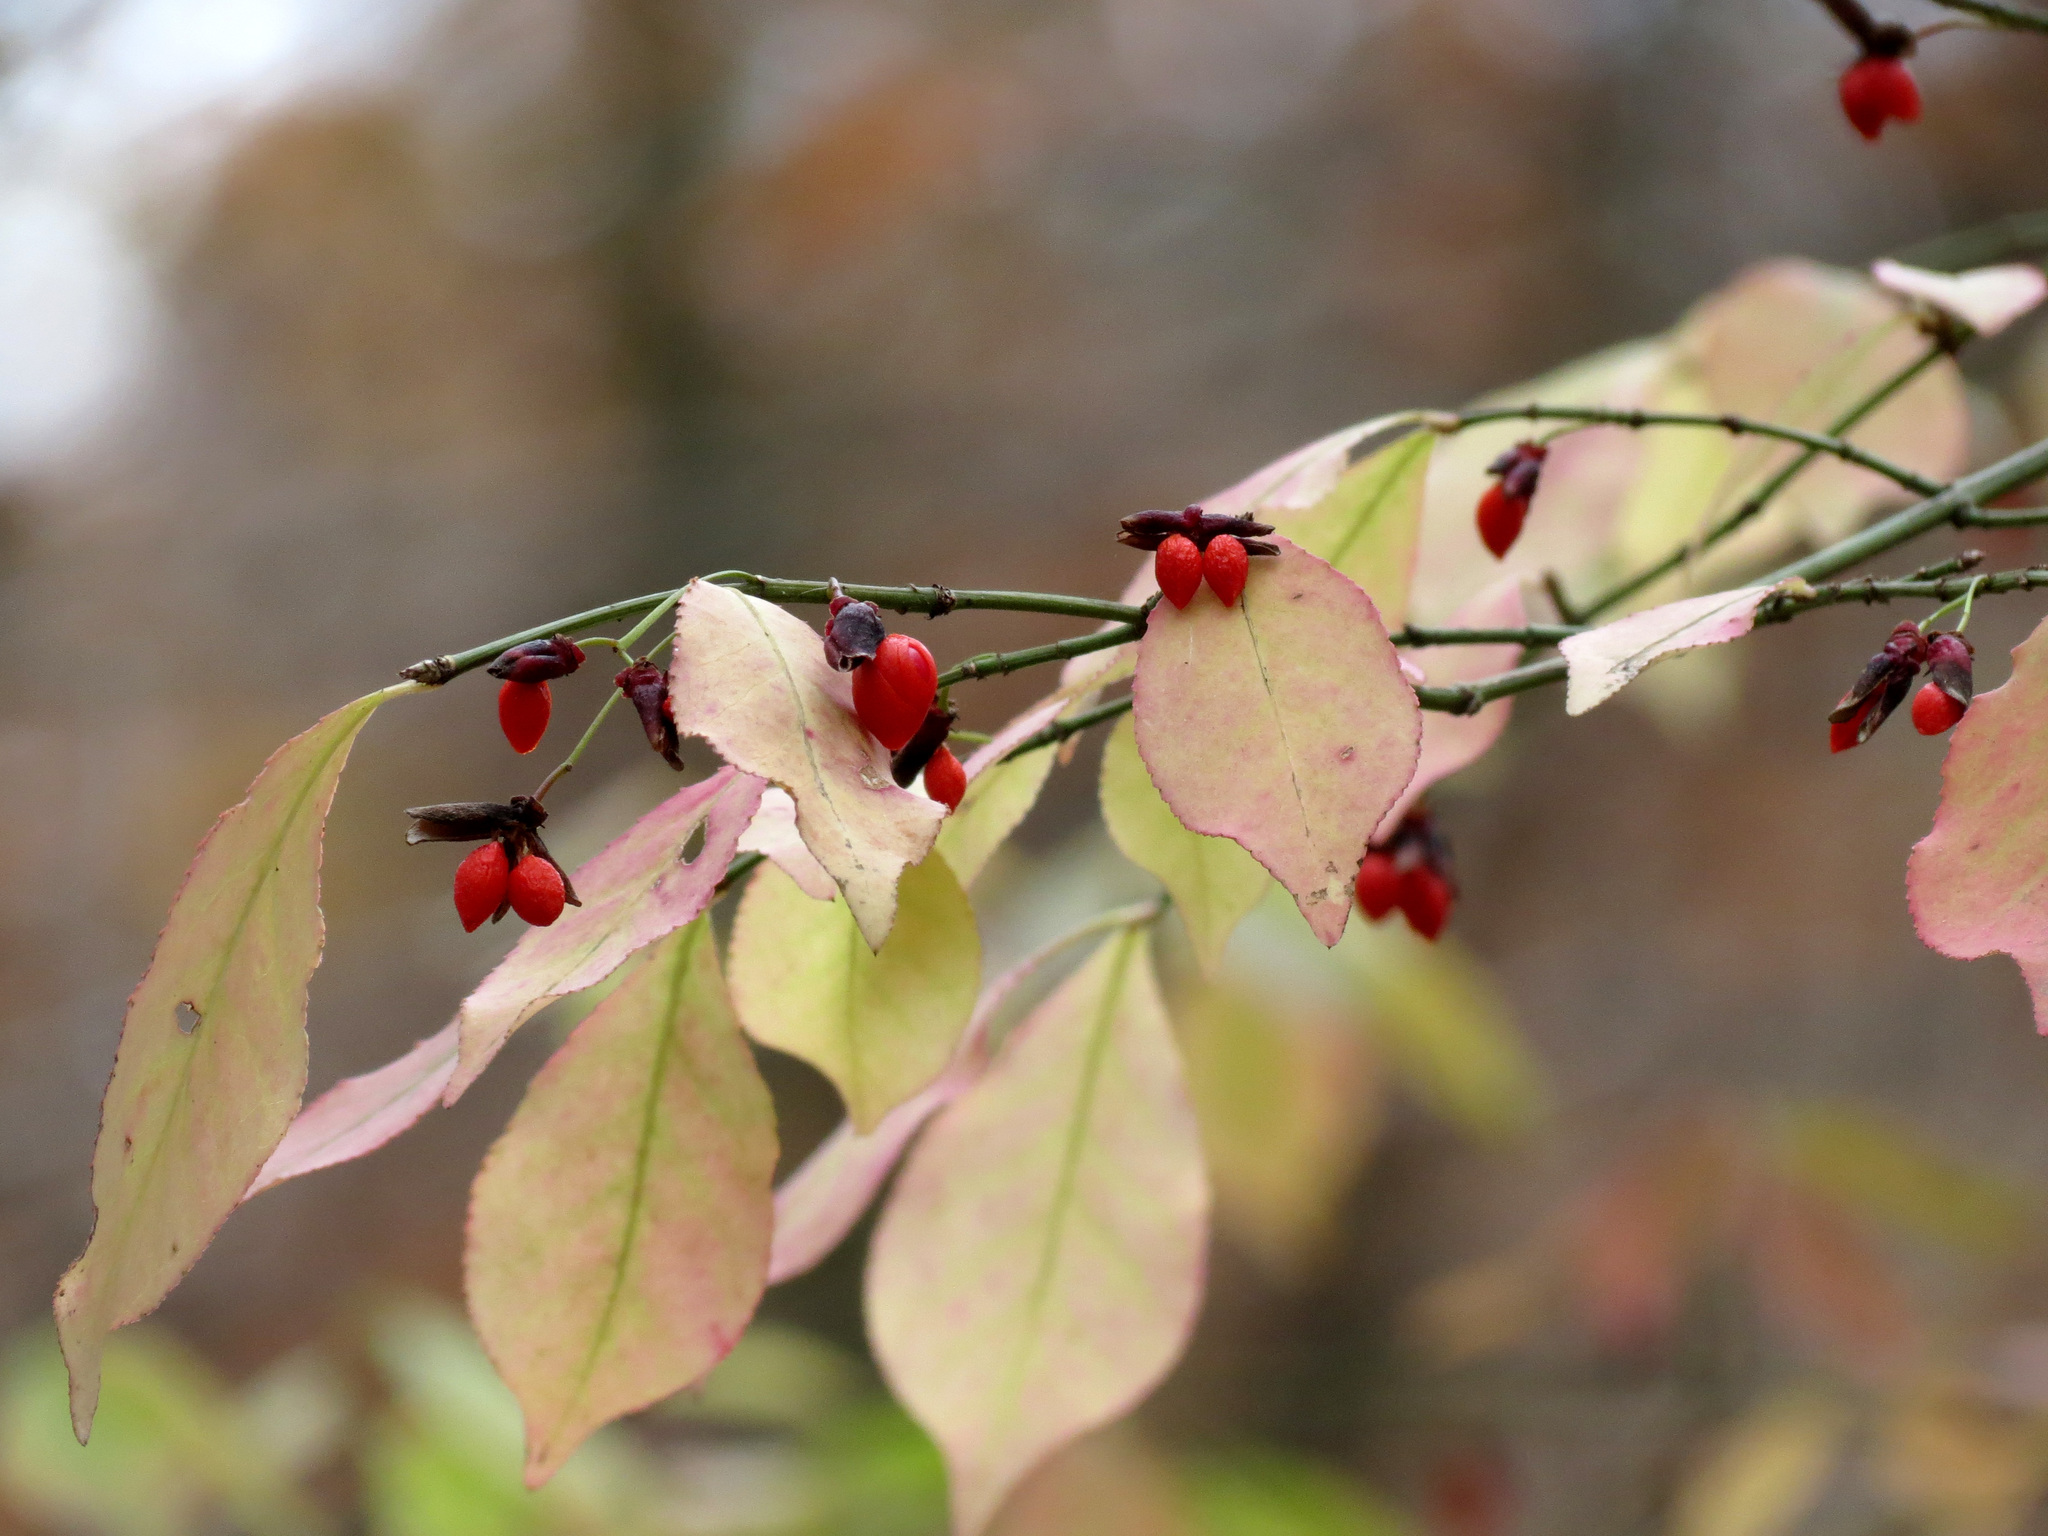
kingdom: Plantae
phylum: Tracheophyta
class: Magnoliopsida
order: Celastrales
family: Celastraceae
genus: Euonymus
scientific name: Euonymus alatus
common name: Winged euonymus
